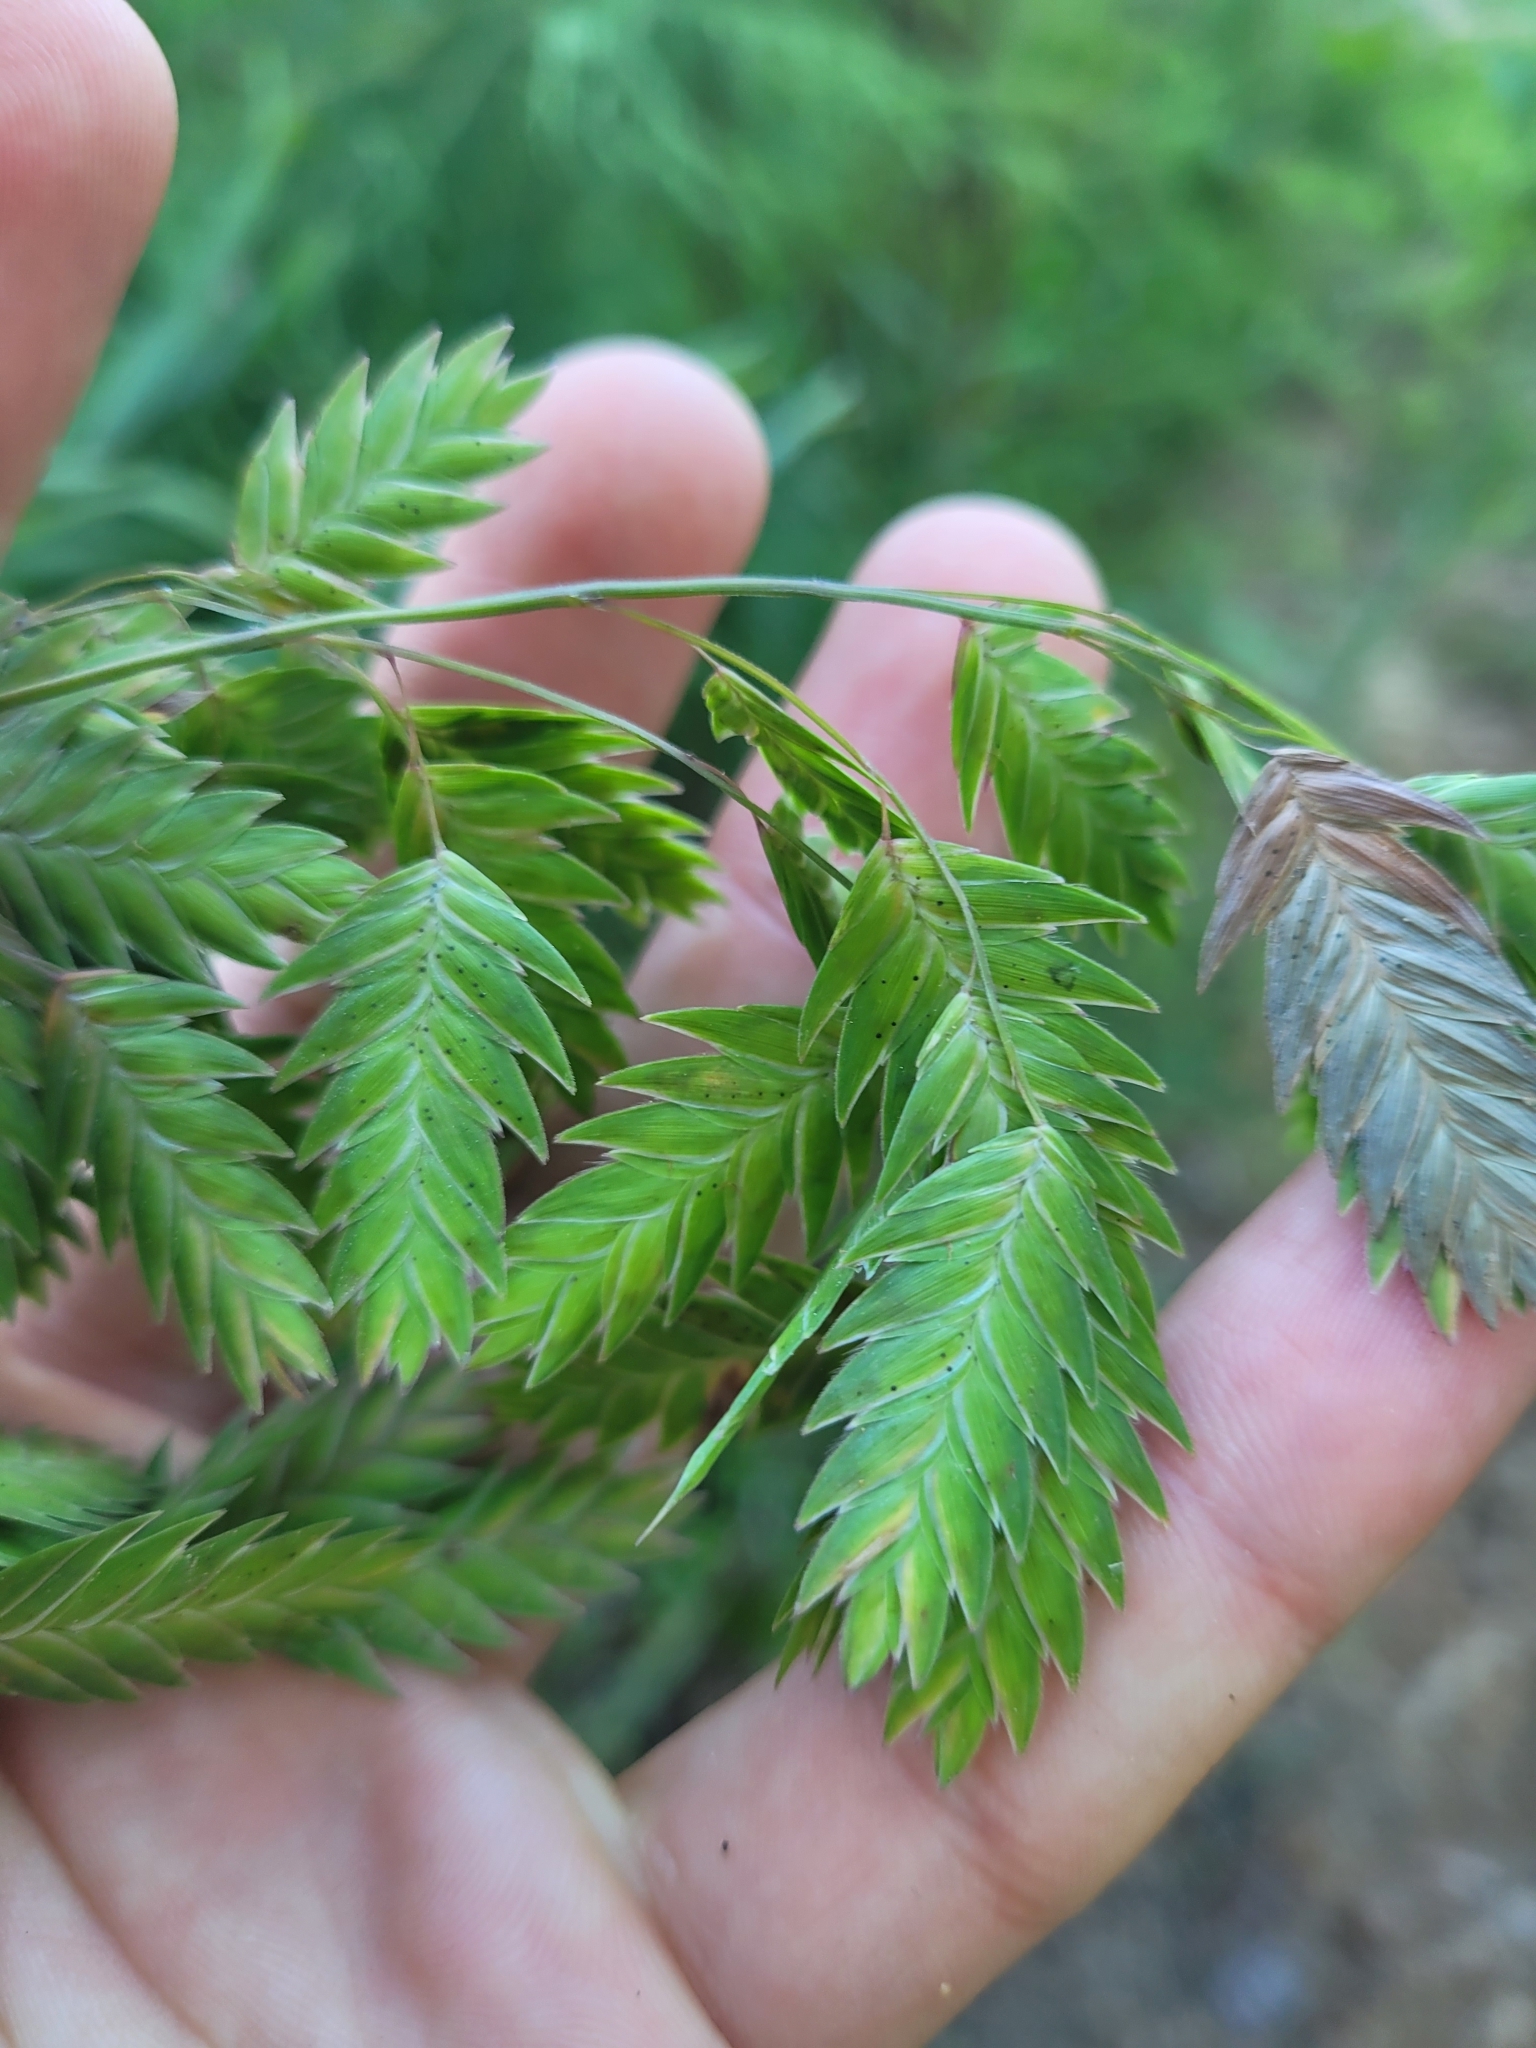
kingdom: Plantae
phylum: Tracheophyta
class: Liliopsida
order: Poales
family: Poaceae
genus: Chasmanthium
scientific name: Chasmanthium latifolium
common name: Broad-leaved chasmanthium
